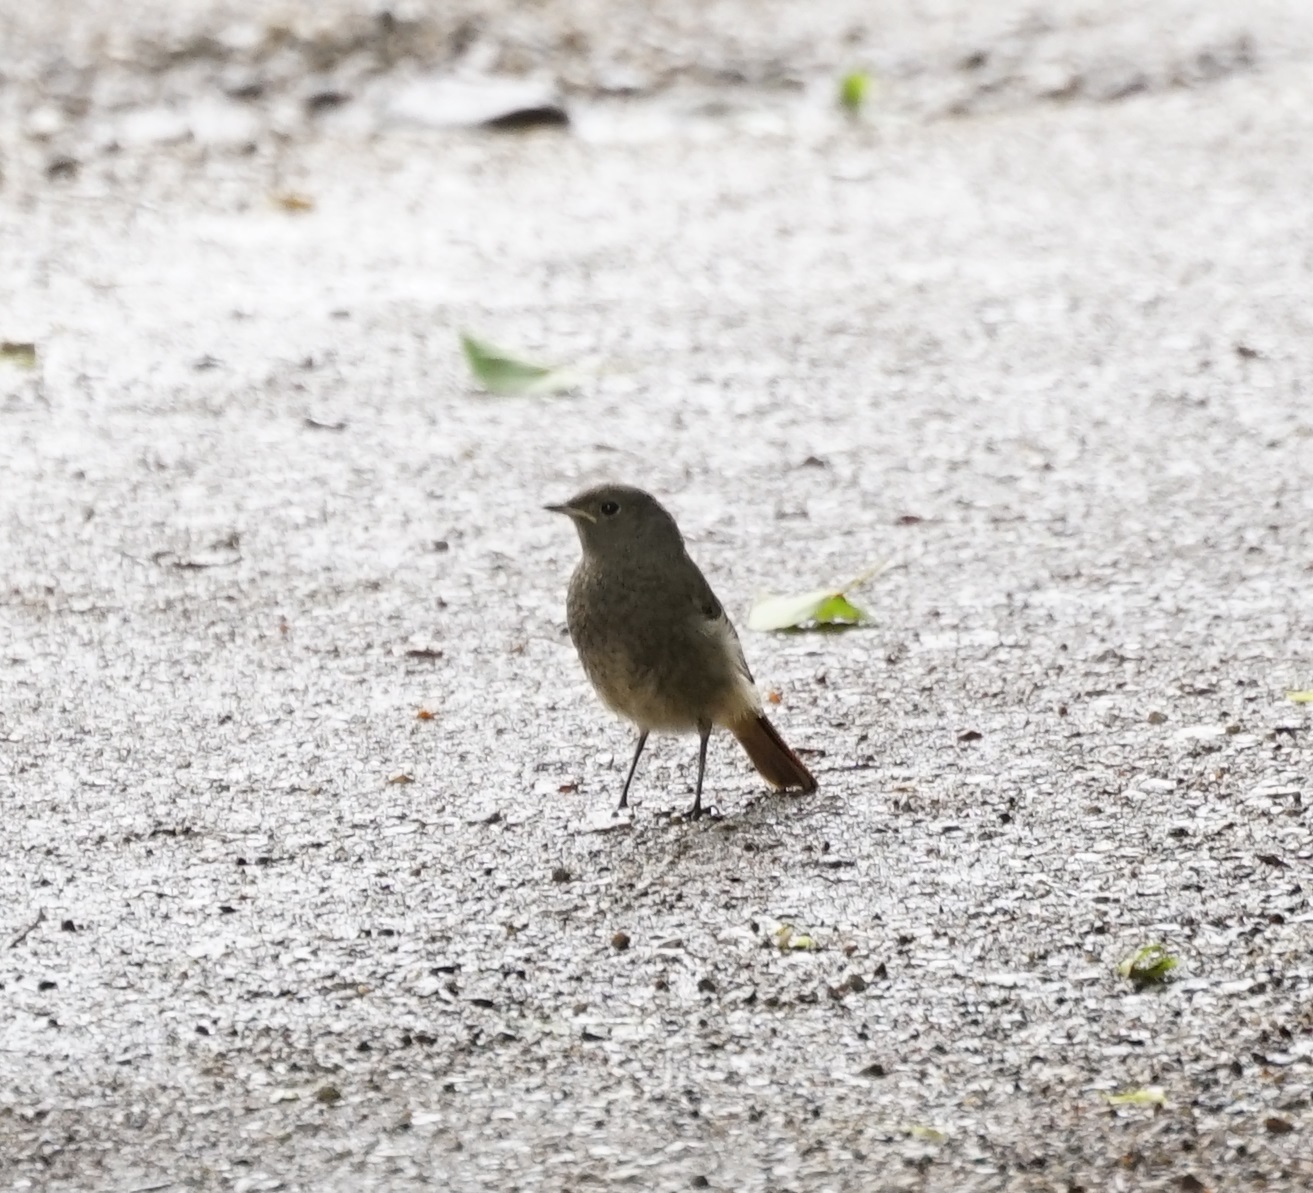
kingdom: Animalia
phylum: Chordata
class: Aves
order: Passeriformes
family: Muscicapidae
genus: Phoenicurus
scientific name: Phoenicurus ochruros
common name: Black redstart
